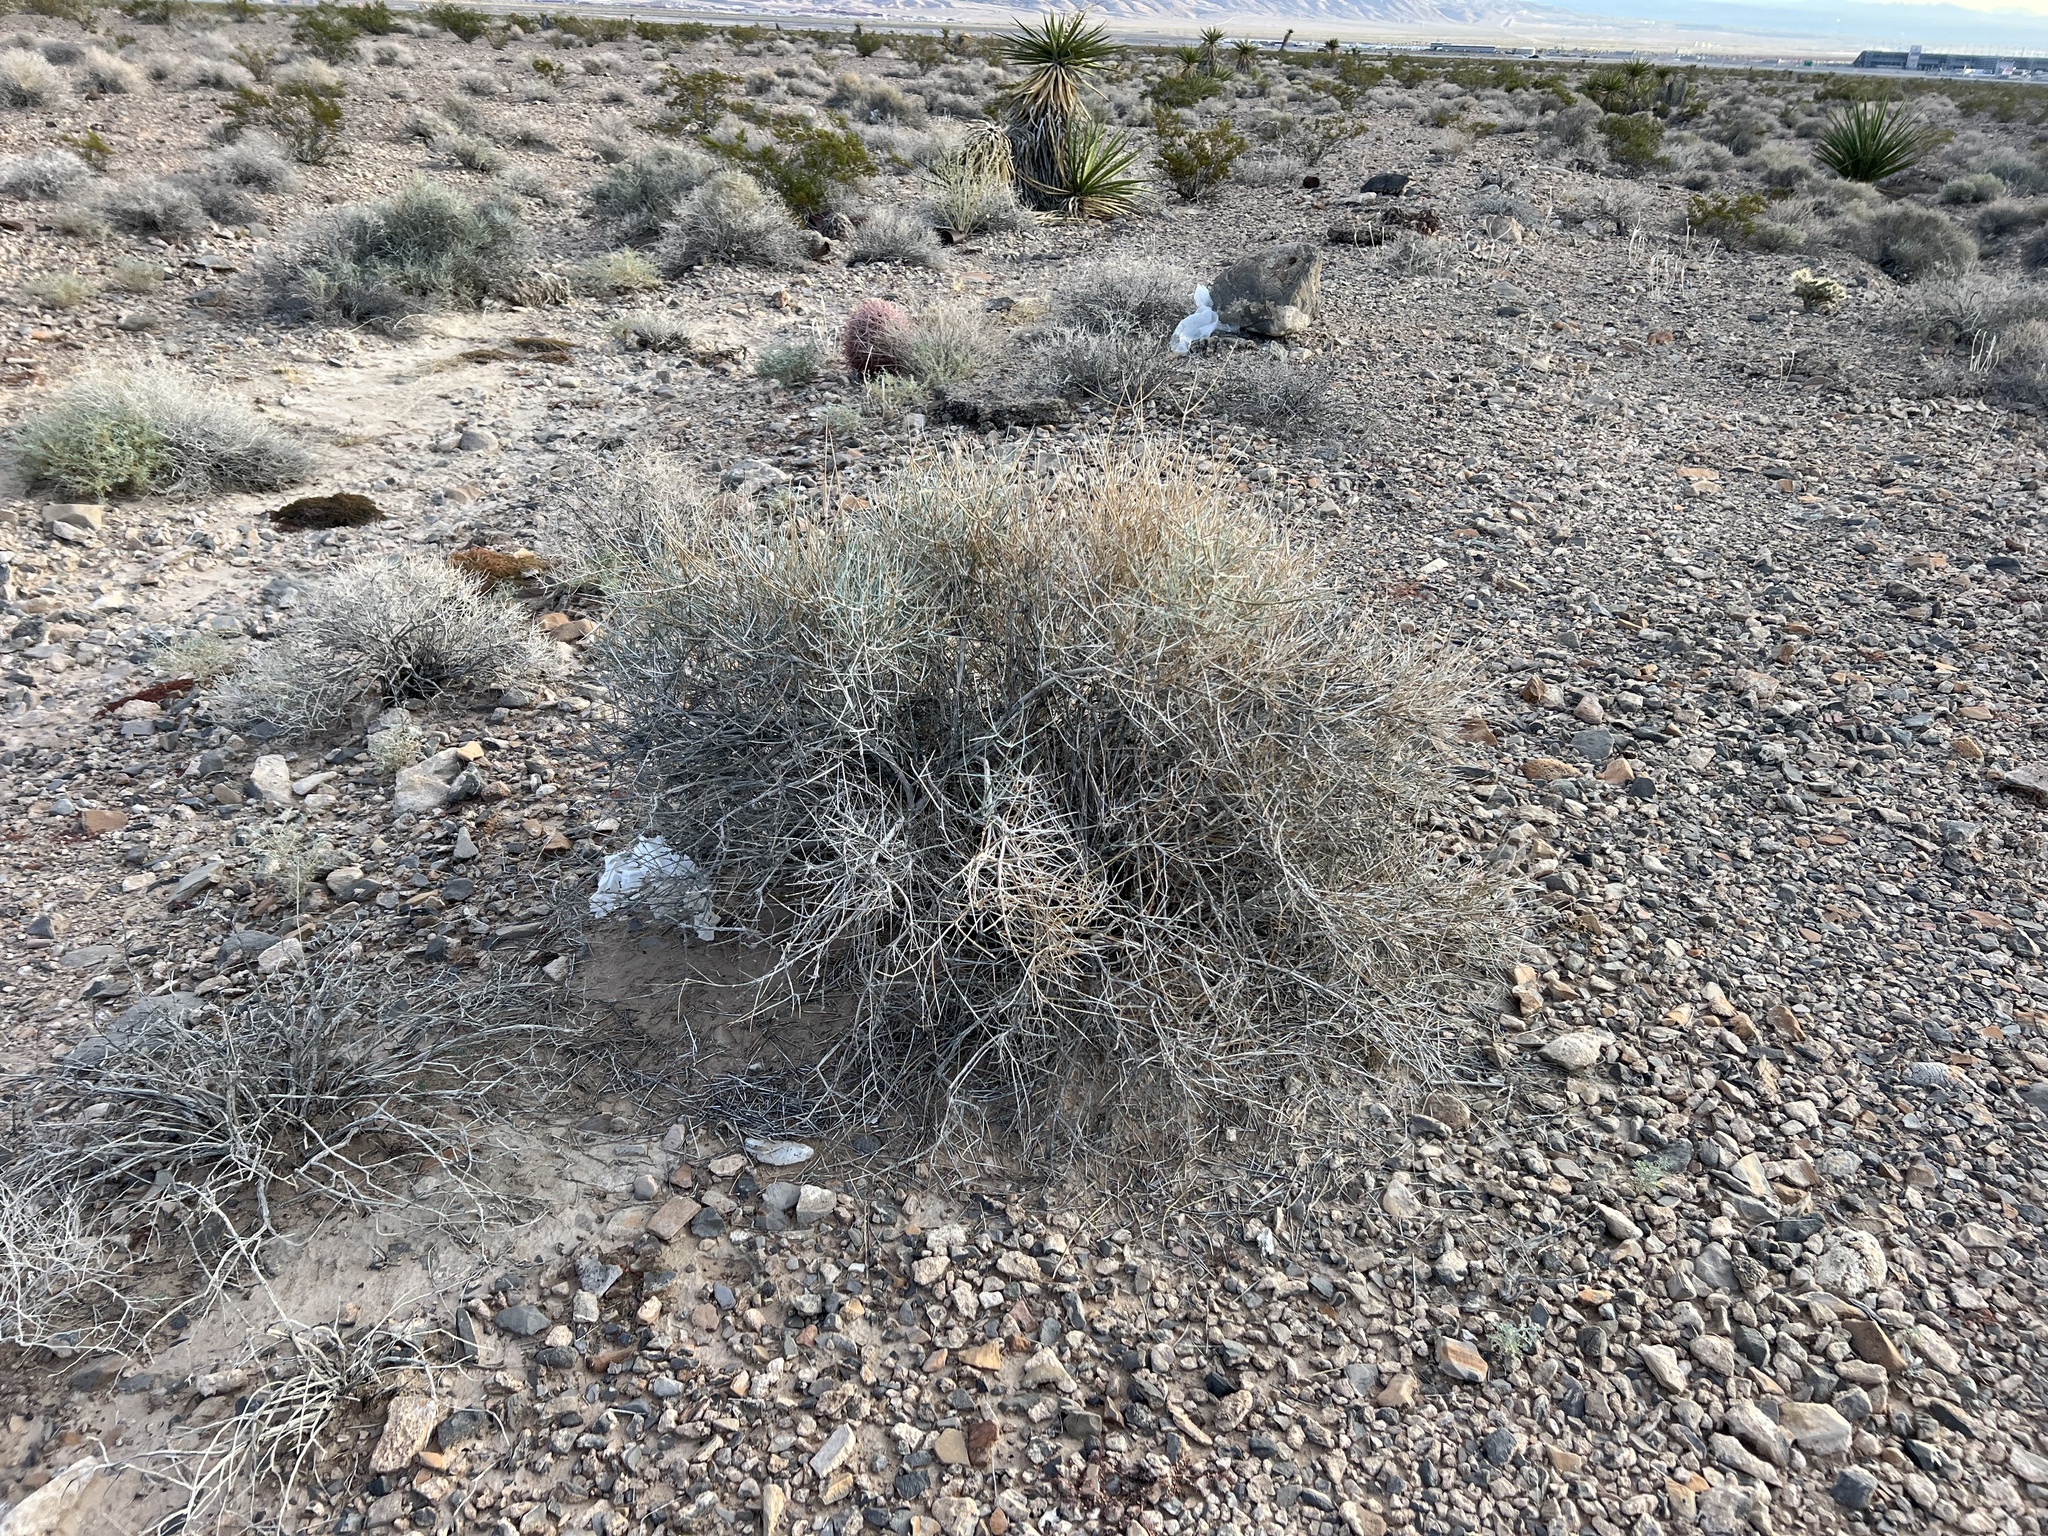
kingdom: Plantae
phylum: Tracheophyta
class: Gnetopsida
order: Ephedrales
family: Ephedraceae
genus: Ephedra
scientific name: Ephedra nevadensis
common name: Gray ephedra
